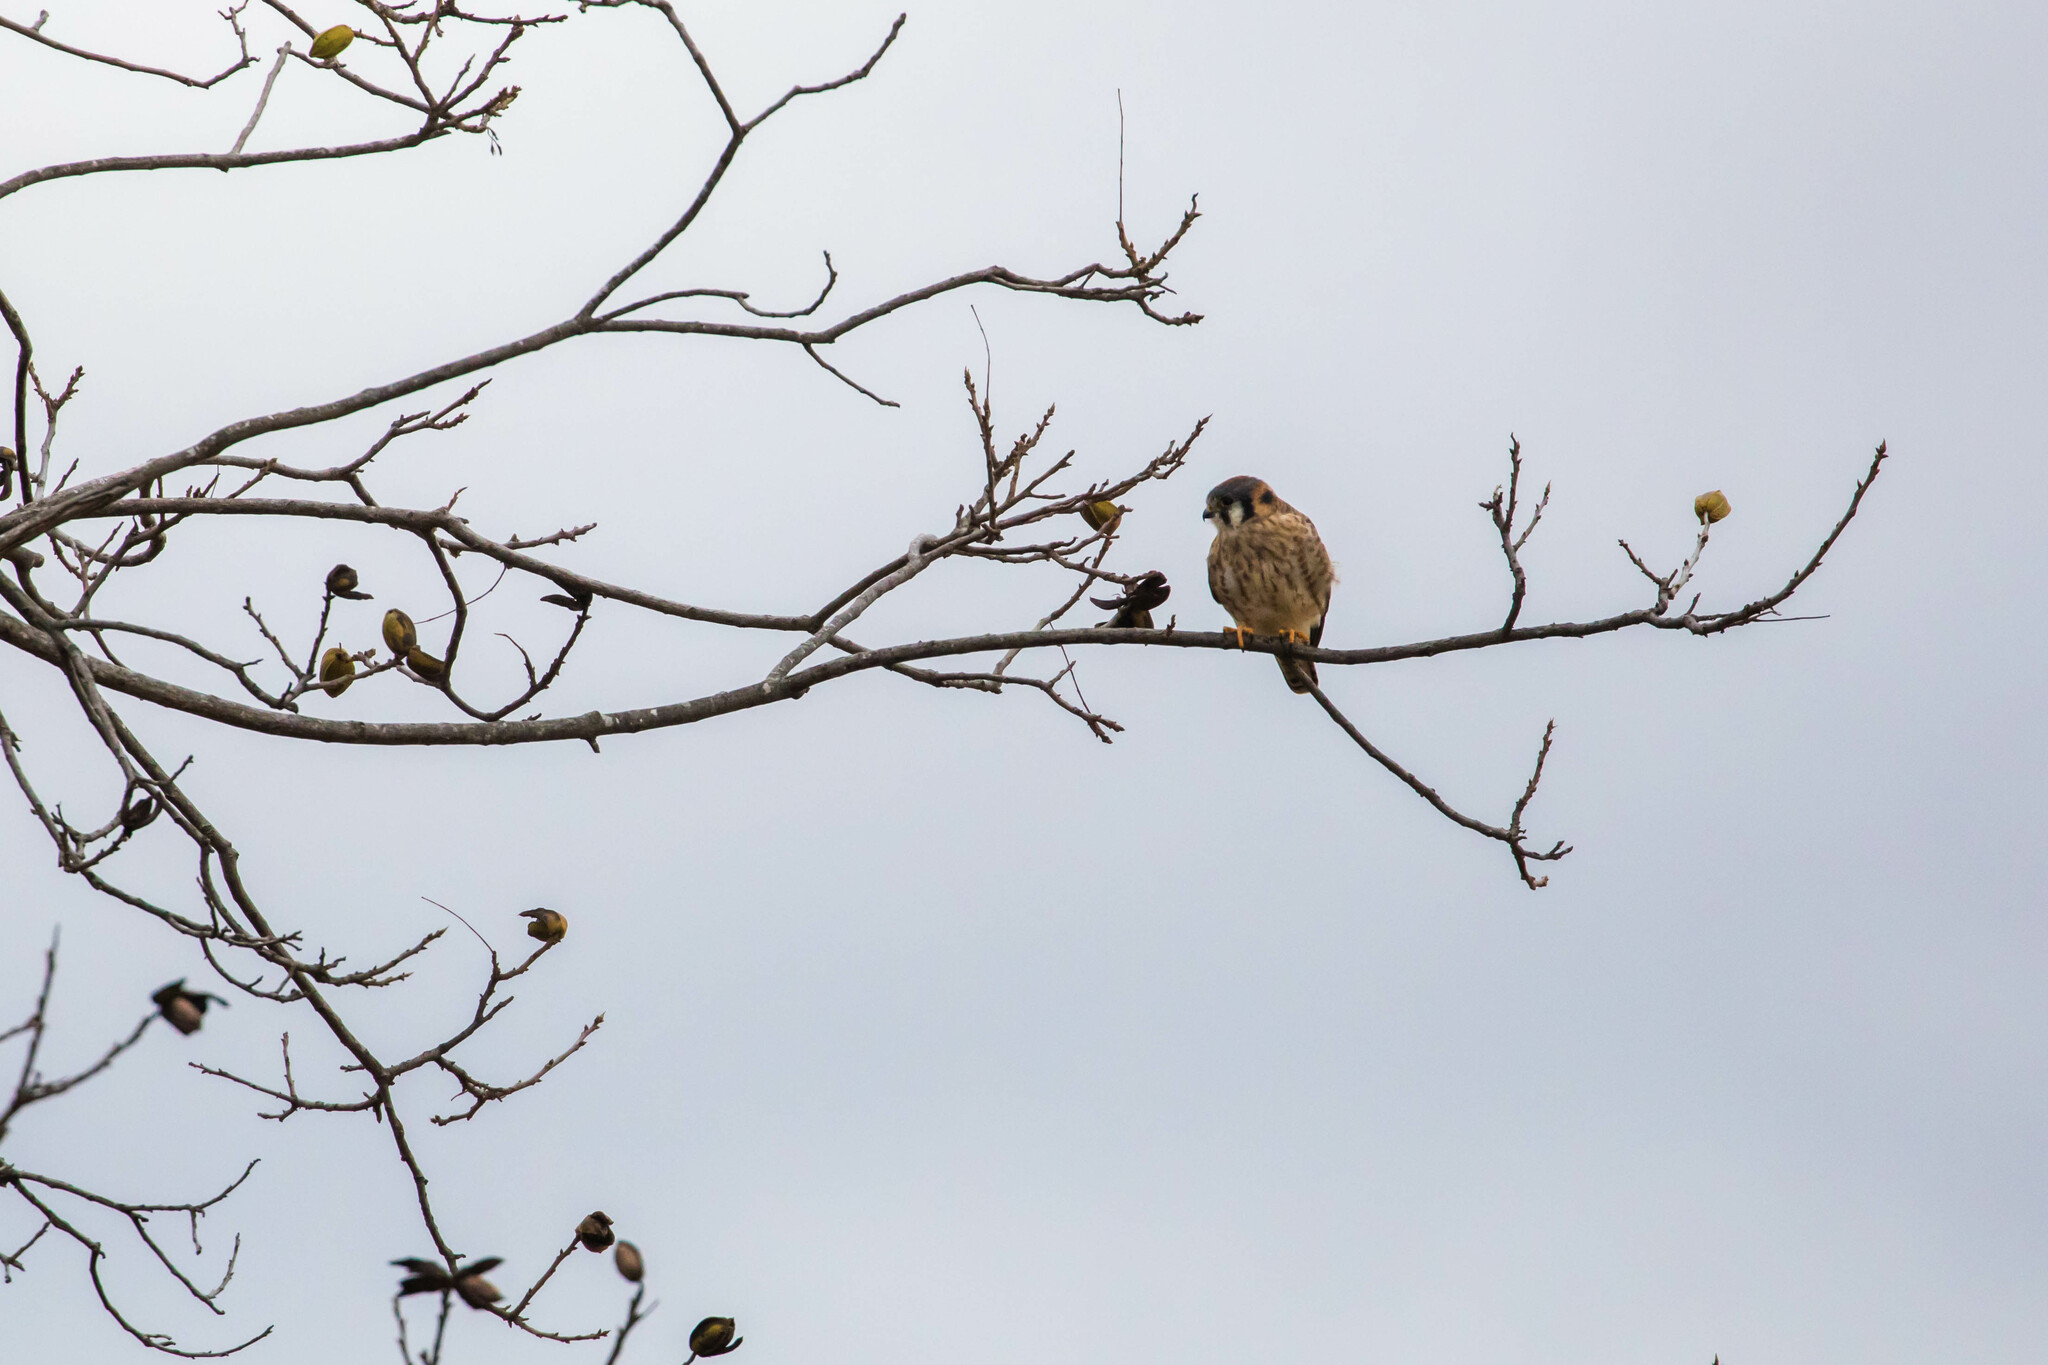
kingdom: Animalia
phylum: Chordata
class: Aves
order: Falconiformes
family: Falconidae
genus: Falco
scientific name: Falco sparverius
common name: American kestrel
